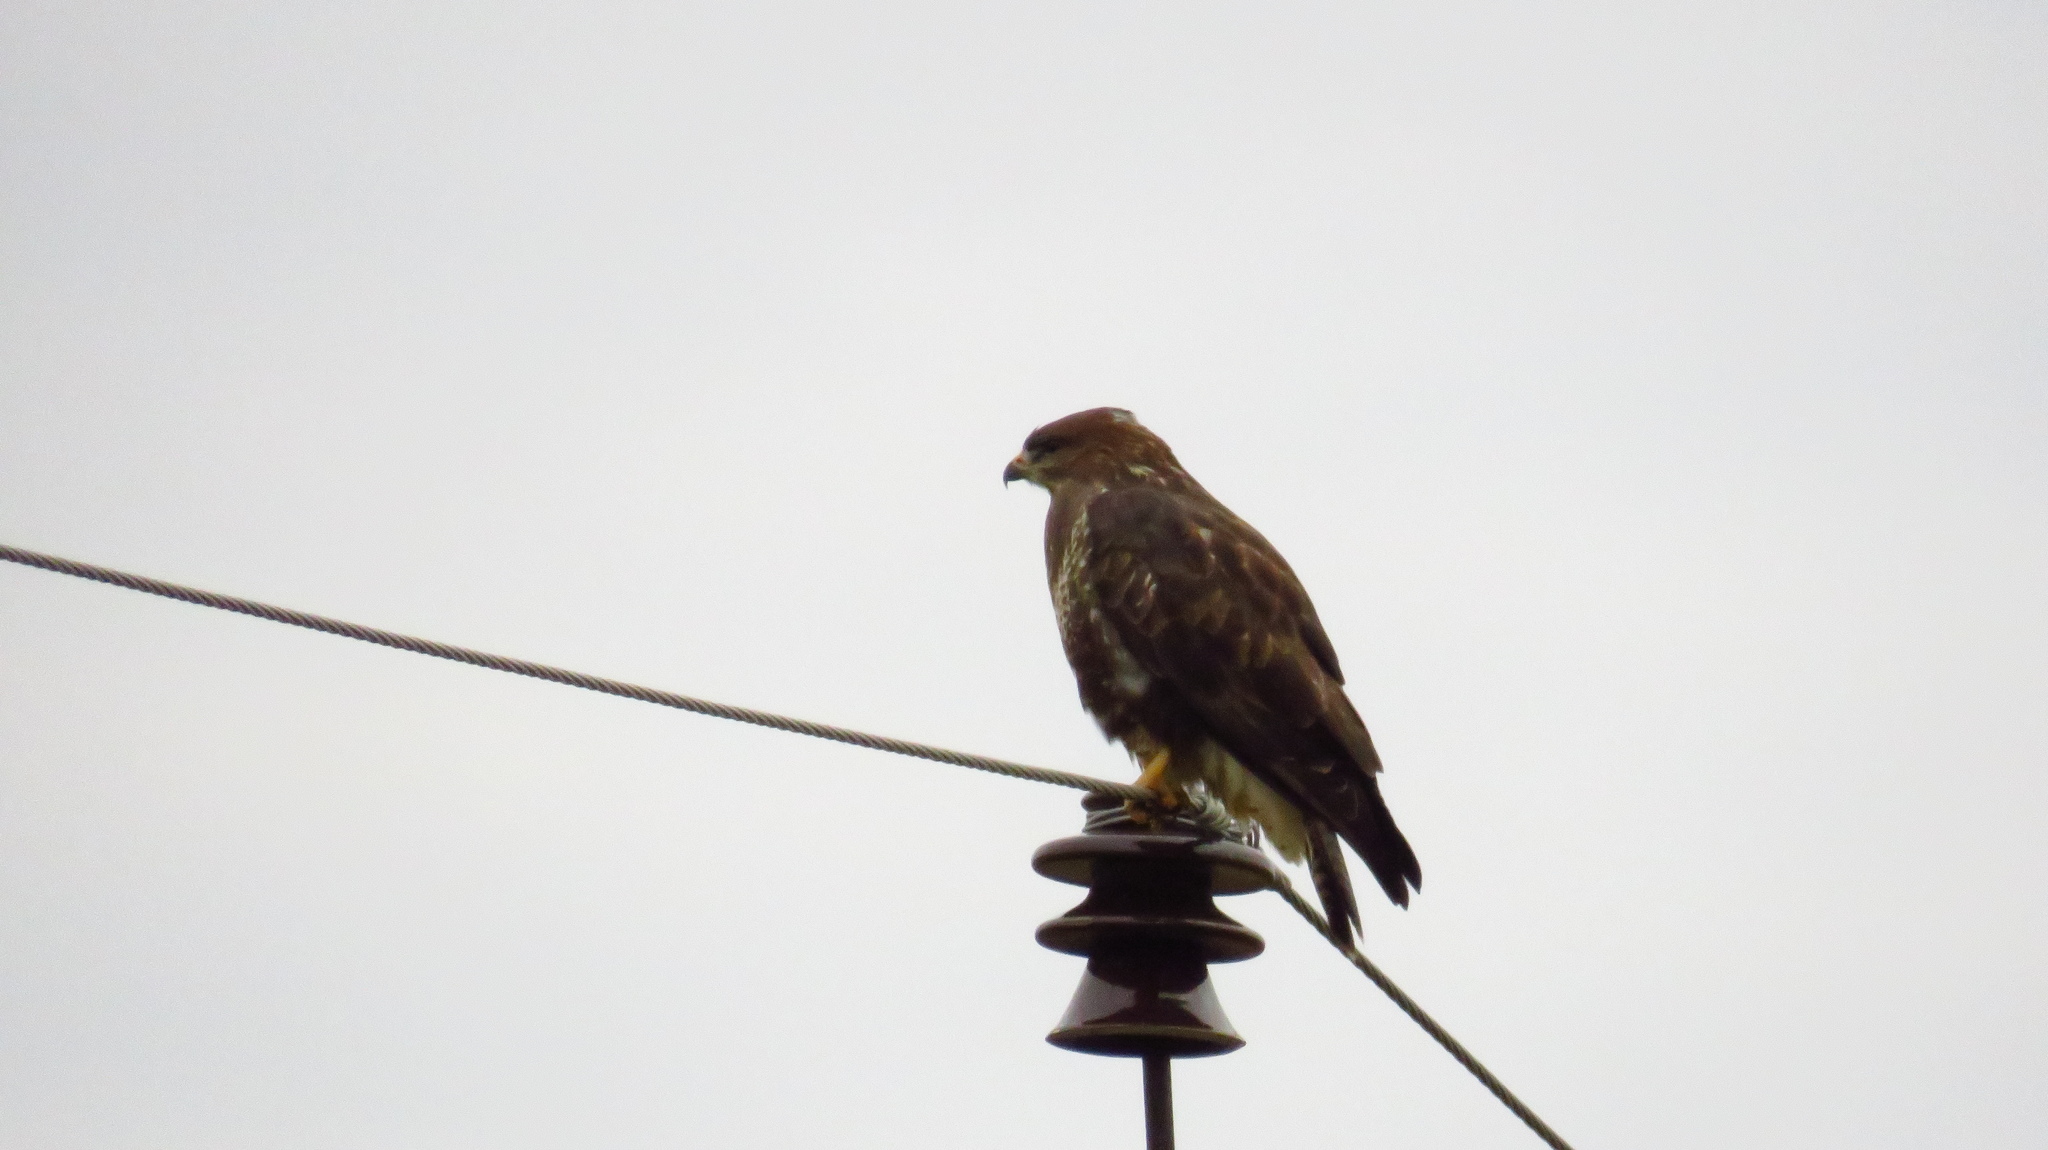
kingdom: Animalia
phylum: Chordata
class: Aves
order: Accipitriformes
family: Accipitridae
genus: Buteo
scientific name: Buteo buteo
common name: Common buzzard
